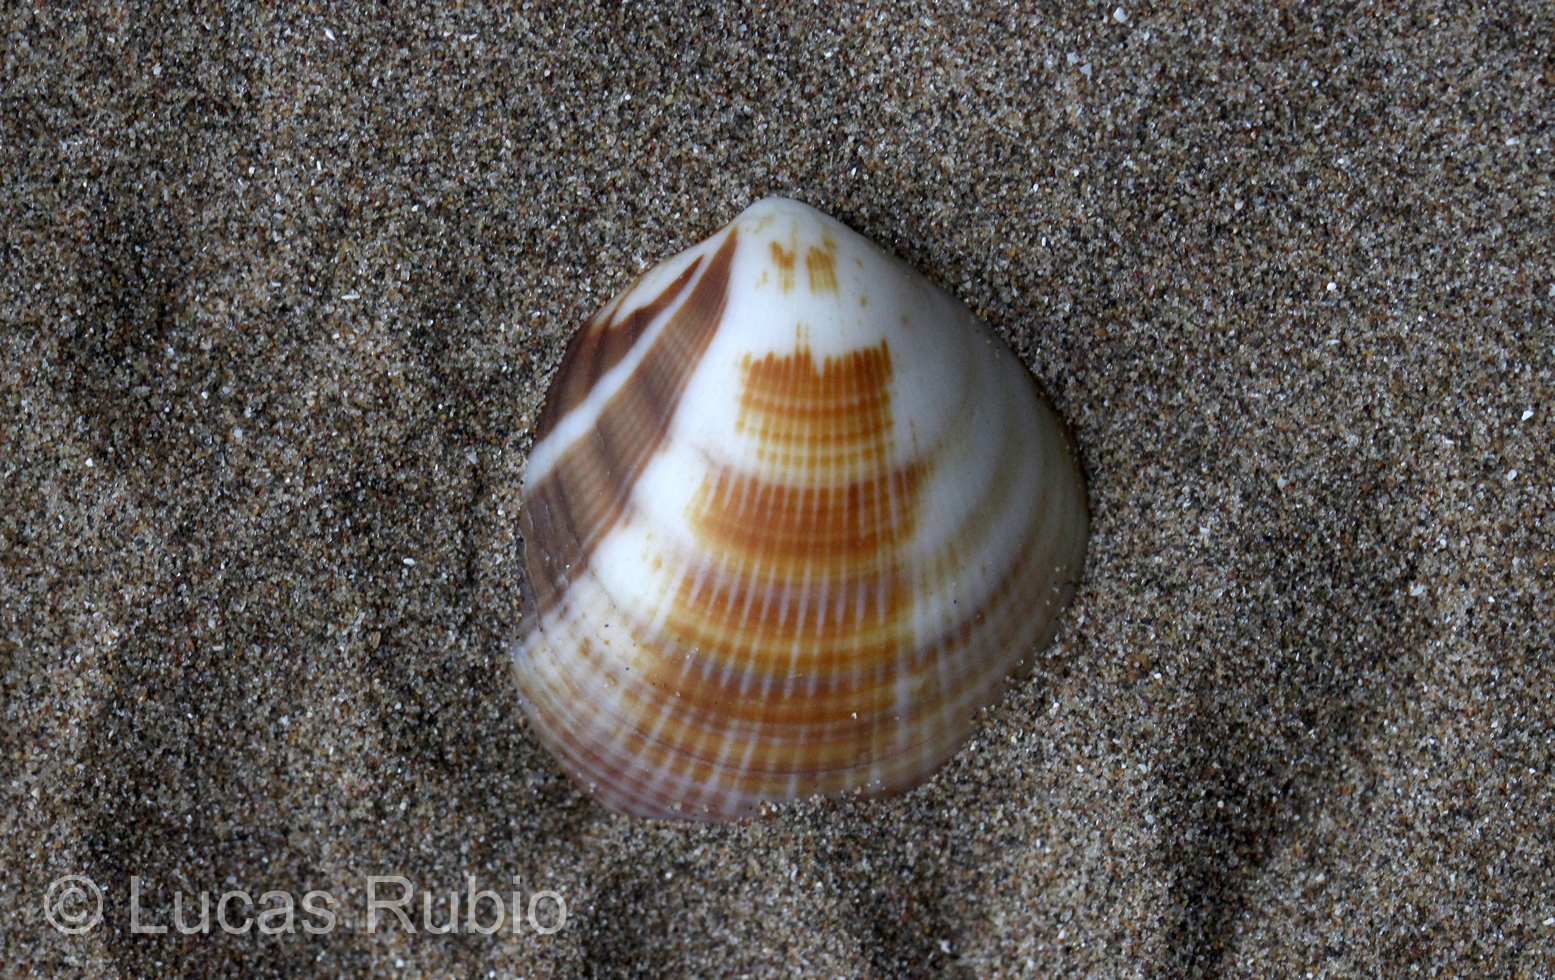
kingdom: Animalia
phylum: Mollusca
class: Bivalvia
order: Arcida
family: Glycymerididae
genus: Glycymeris
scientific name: Glycymeris longior
